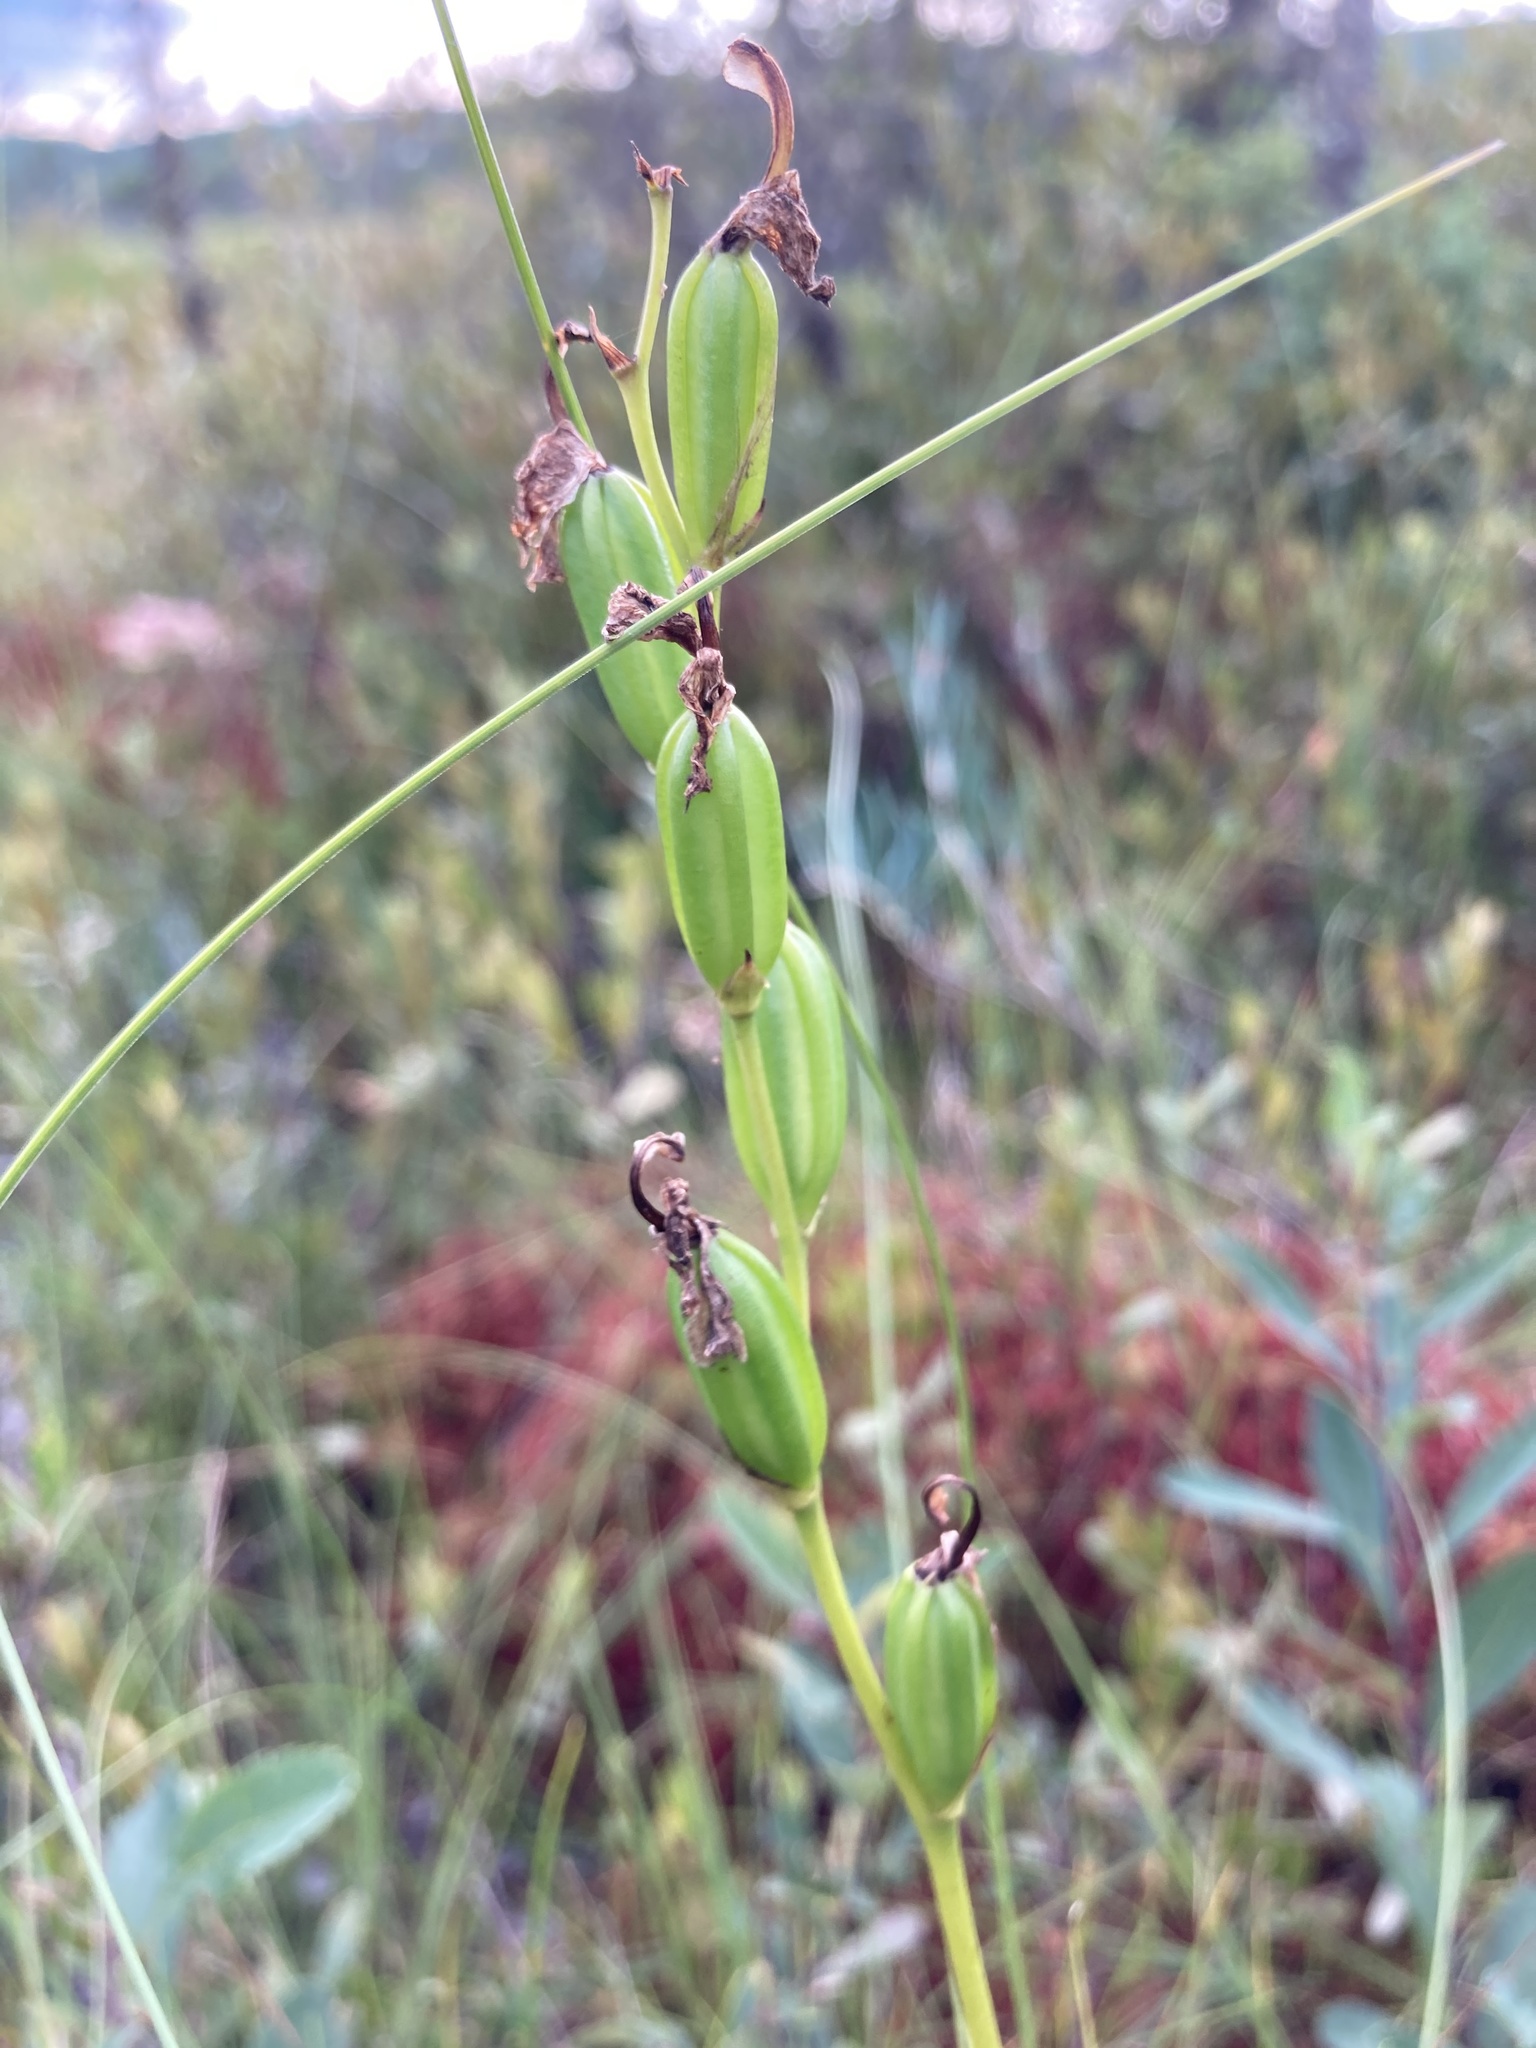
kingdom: Plantae
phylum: Tracheophyta
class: Liliopsida
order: Asparagales
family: Orchidaceae
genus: Calopogon
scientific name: Calopogon tuberosus
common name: Grass-pink
